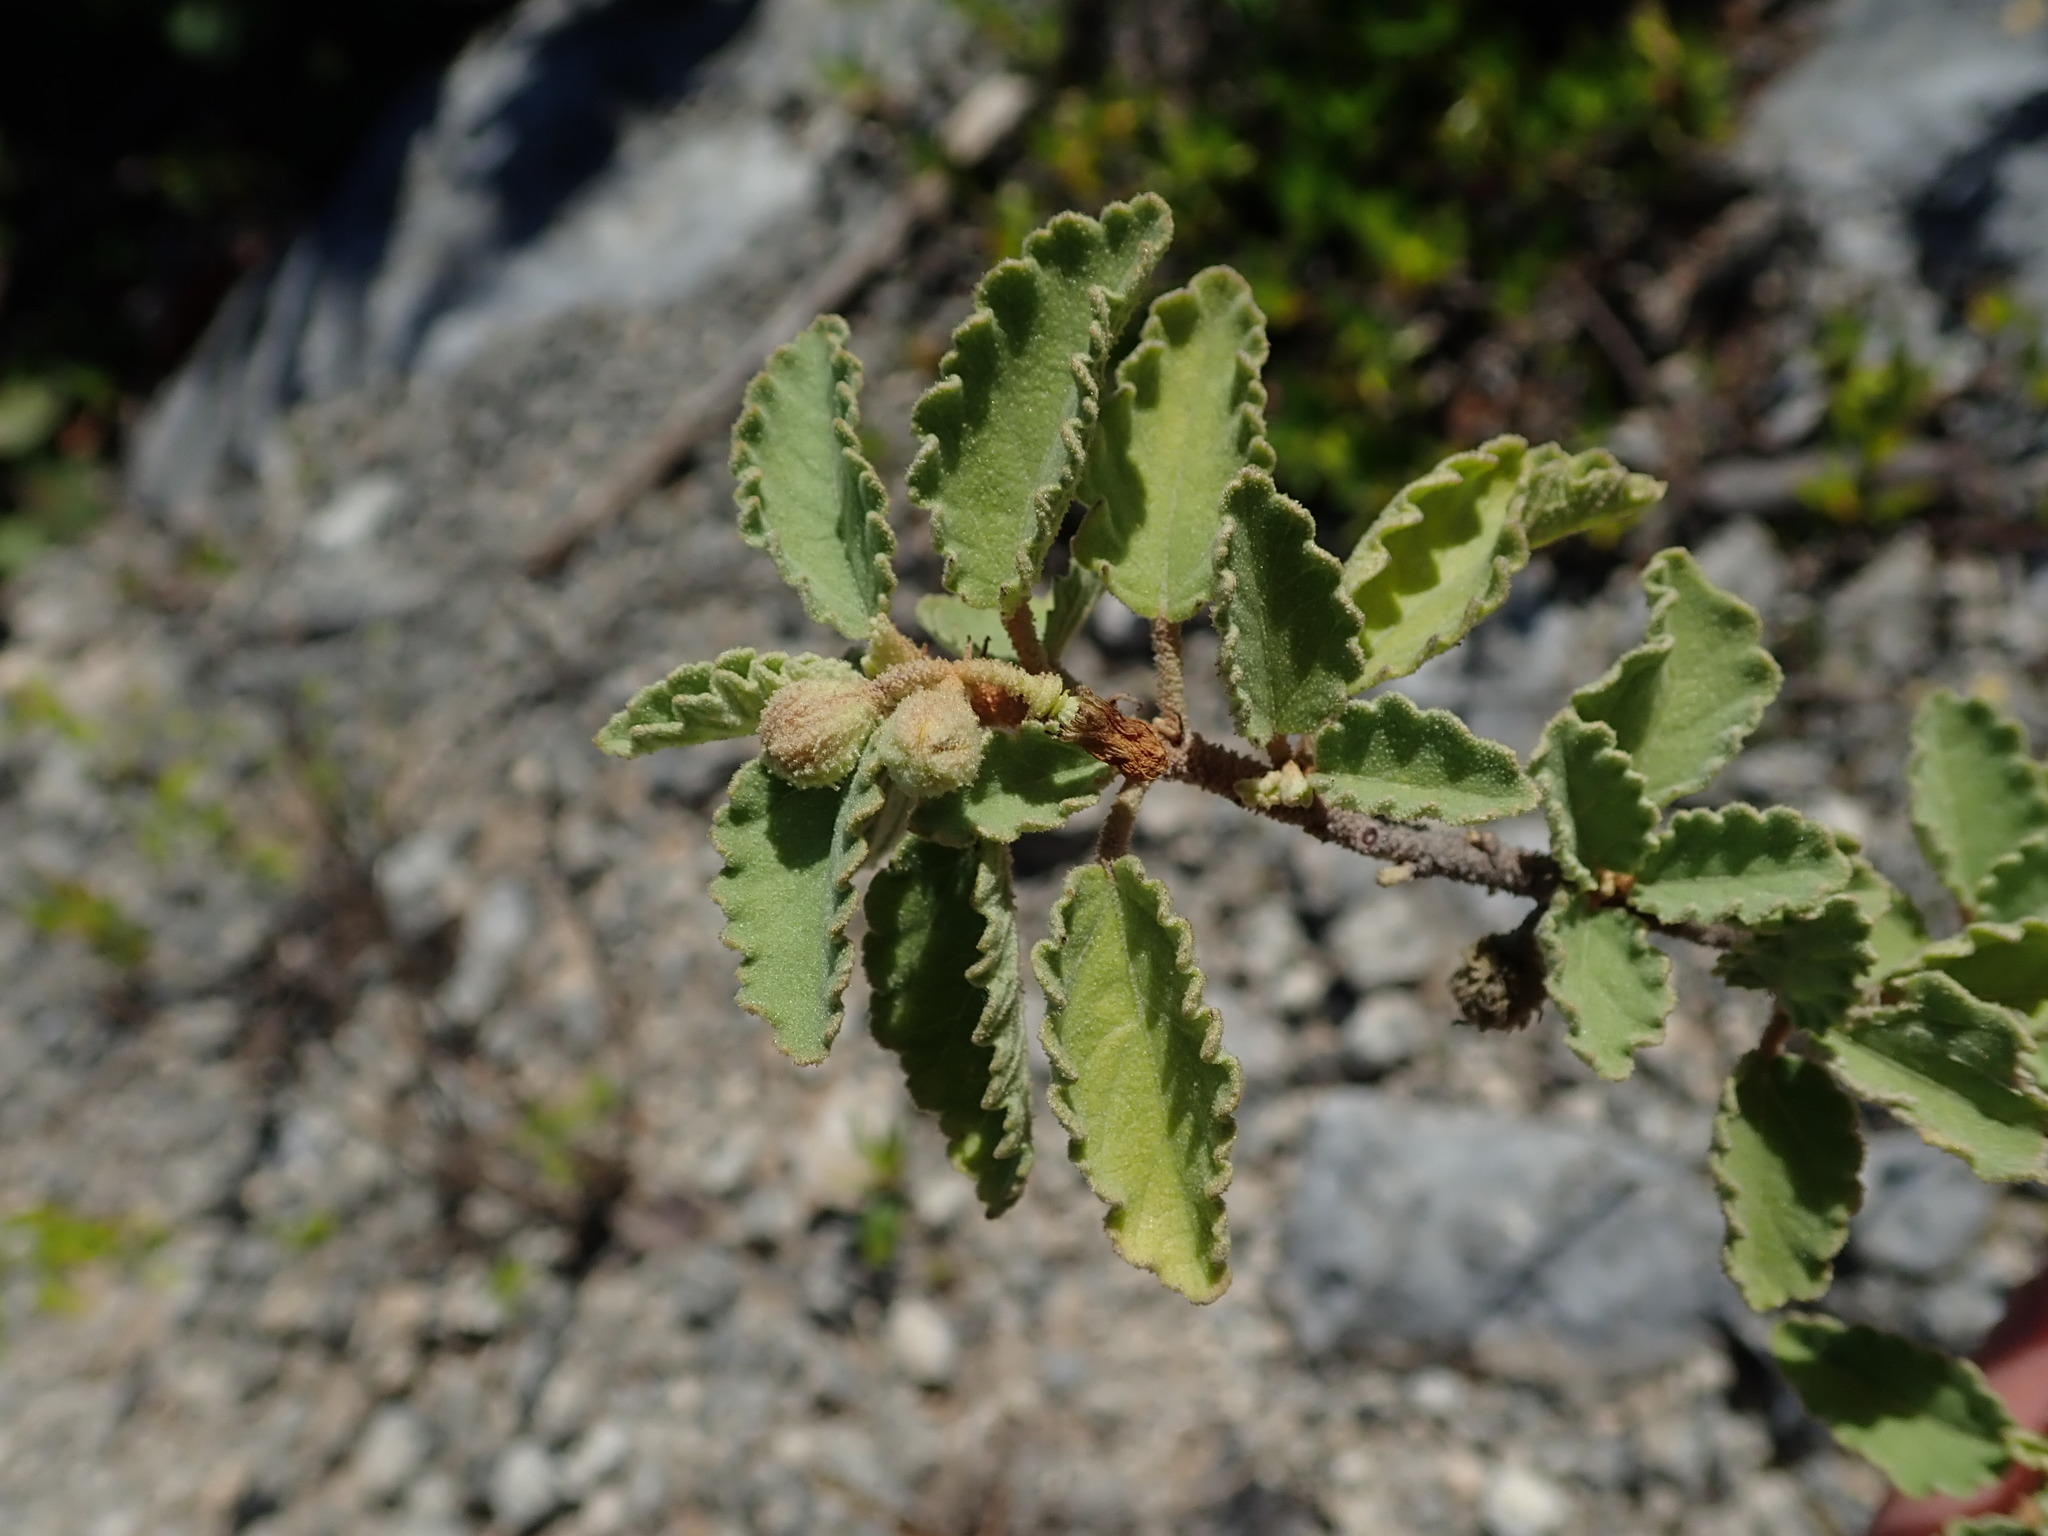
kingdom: Plantae
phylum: Tracheophyta
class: Magnoliopsida
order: Malvales
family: Malvaceae
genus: Corchorus
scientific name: Corchorus hirsutus
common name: Jackswitch
